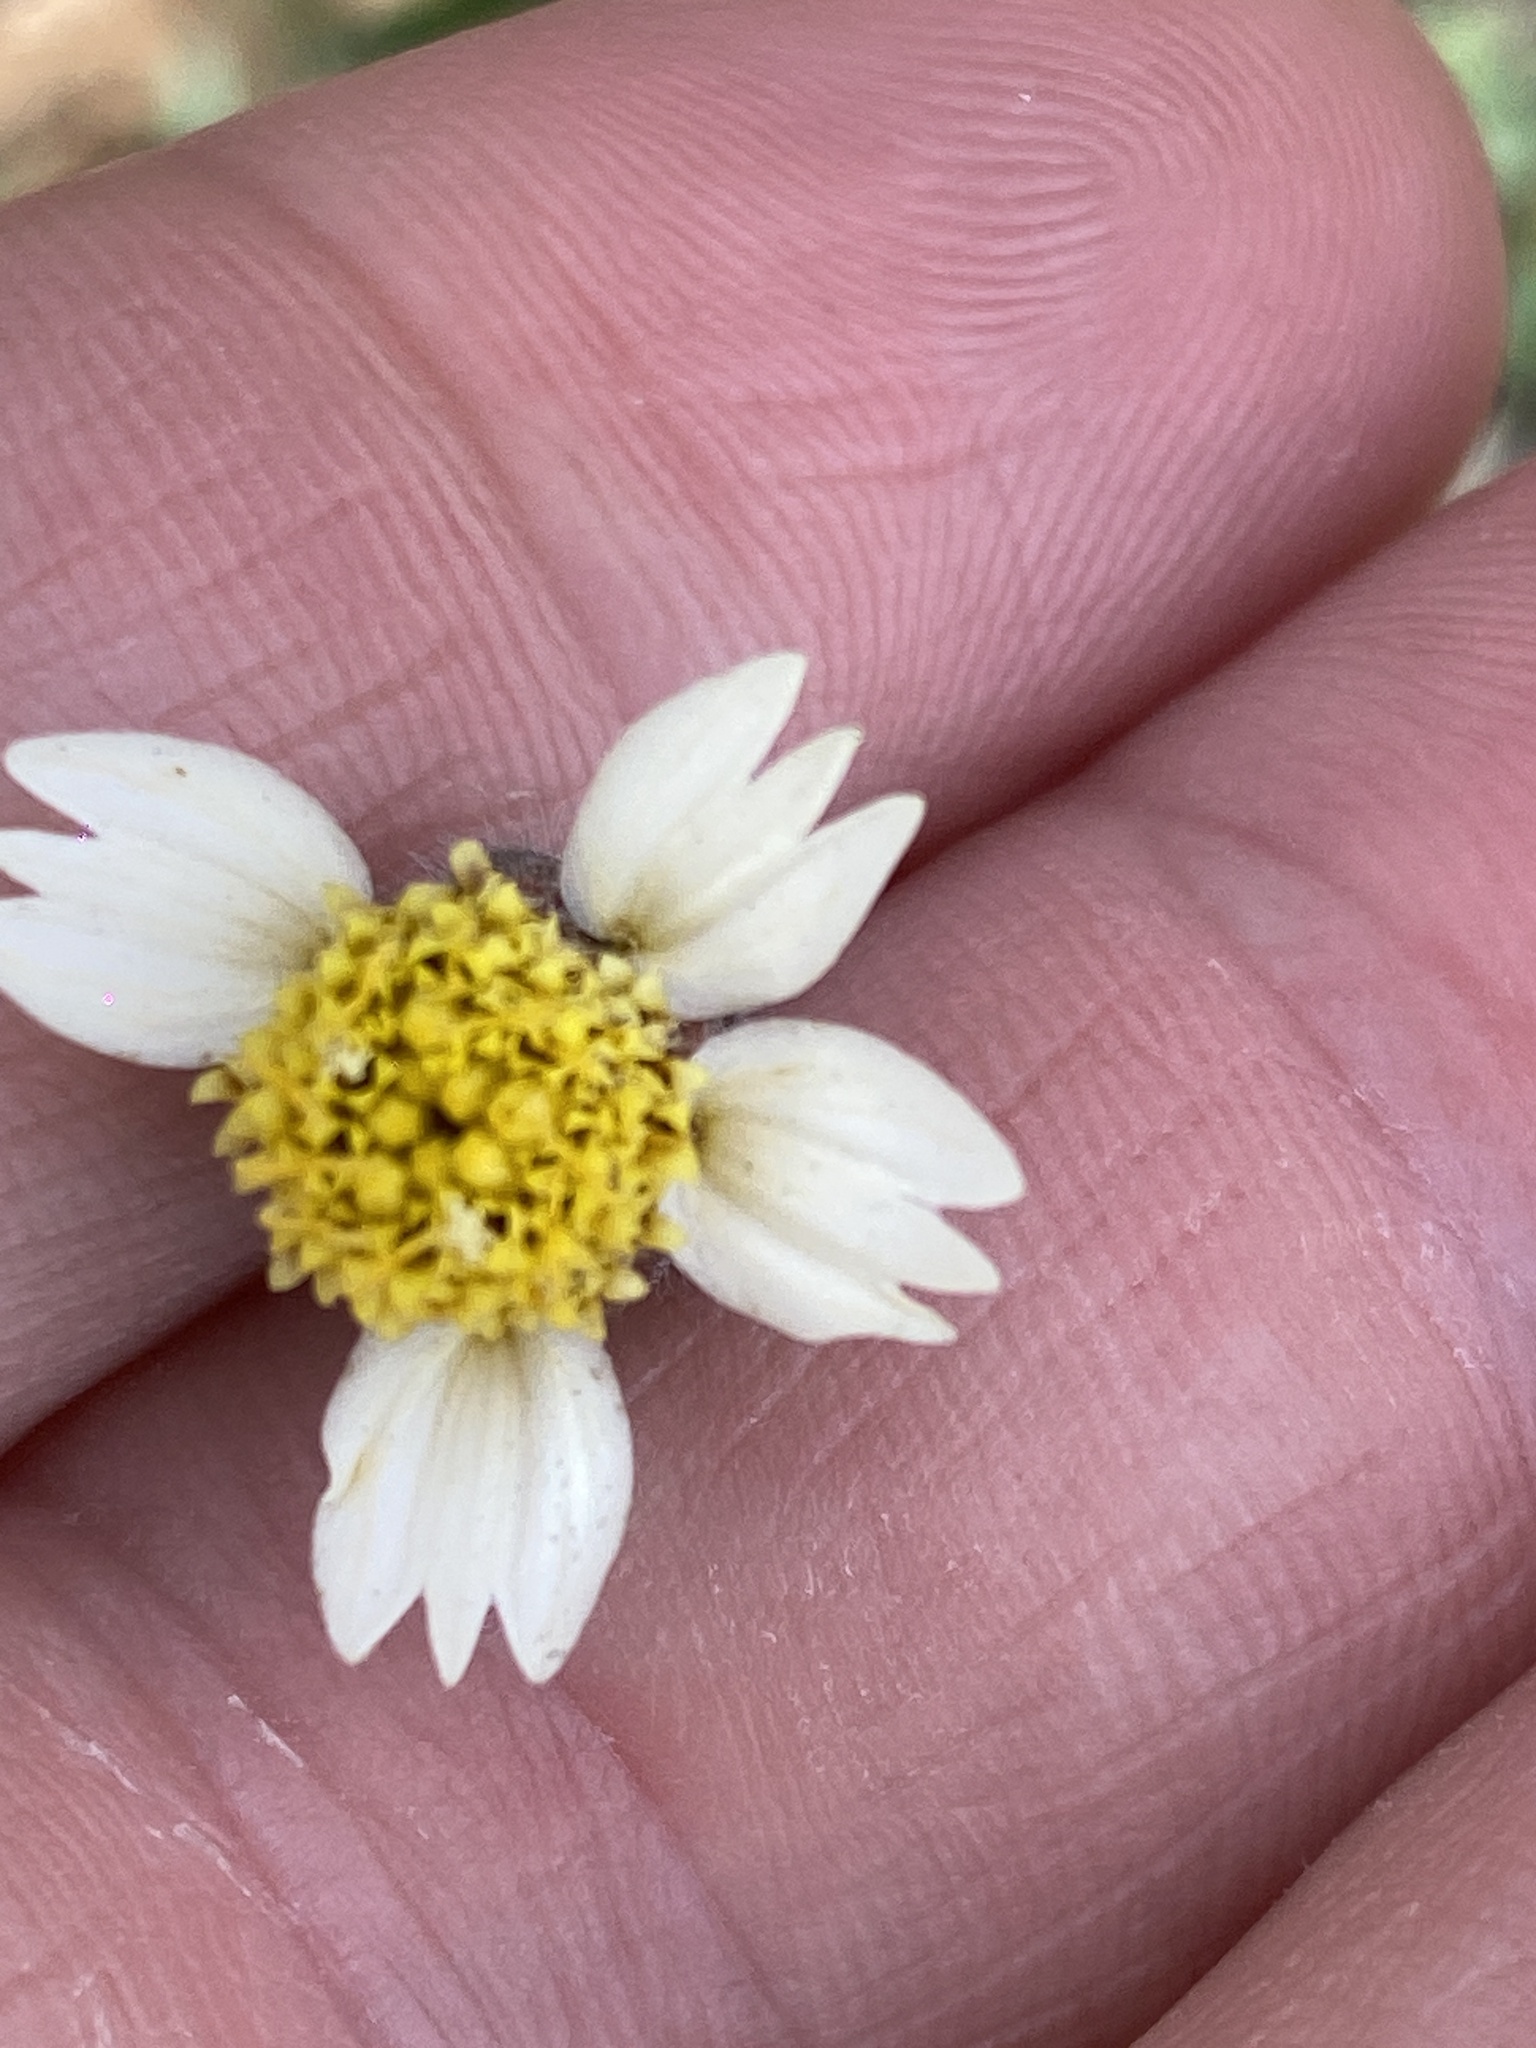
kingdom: Plantae
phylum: Tracheophyta
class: Magnoliopsida
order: Asterales
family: Asteraceae
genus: Tridax
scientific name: Tridax procumbens
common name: Coatbuttons
